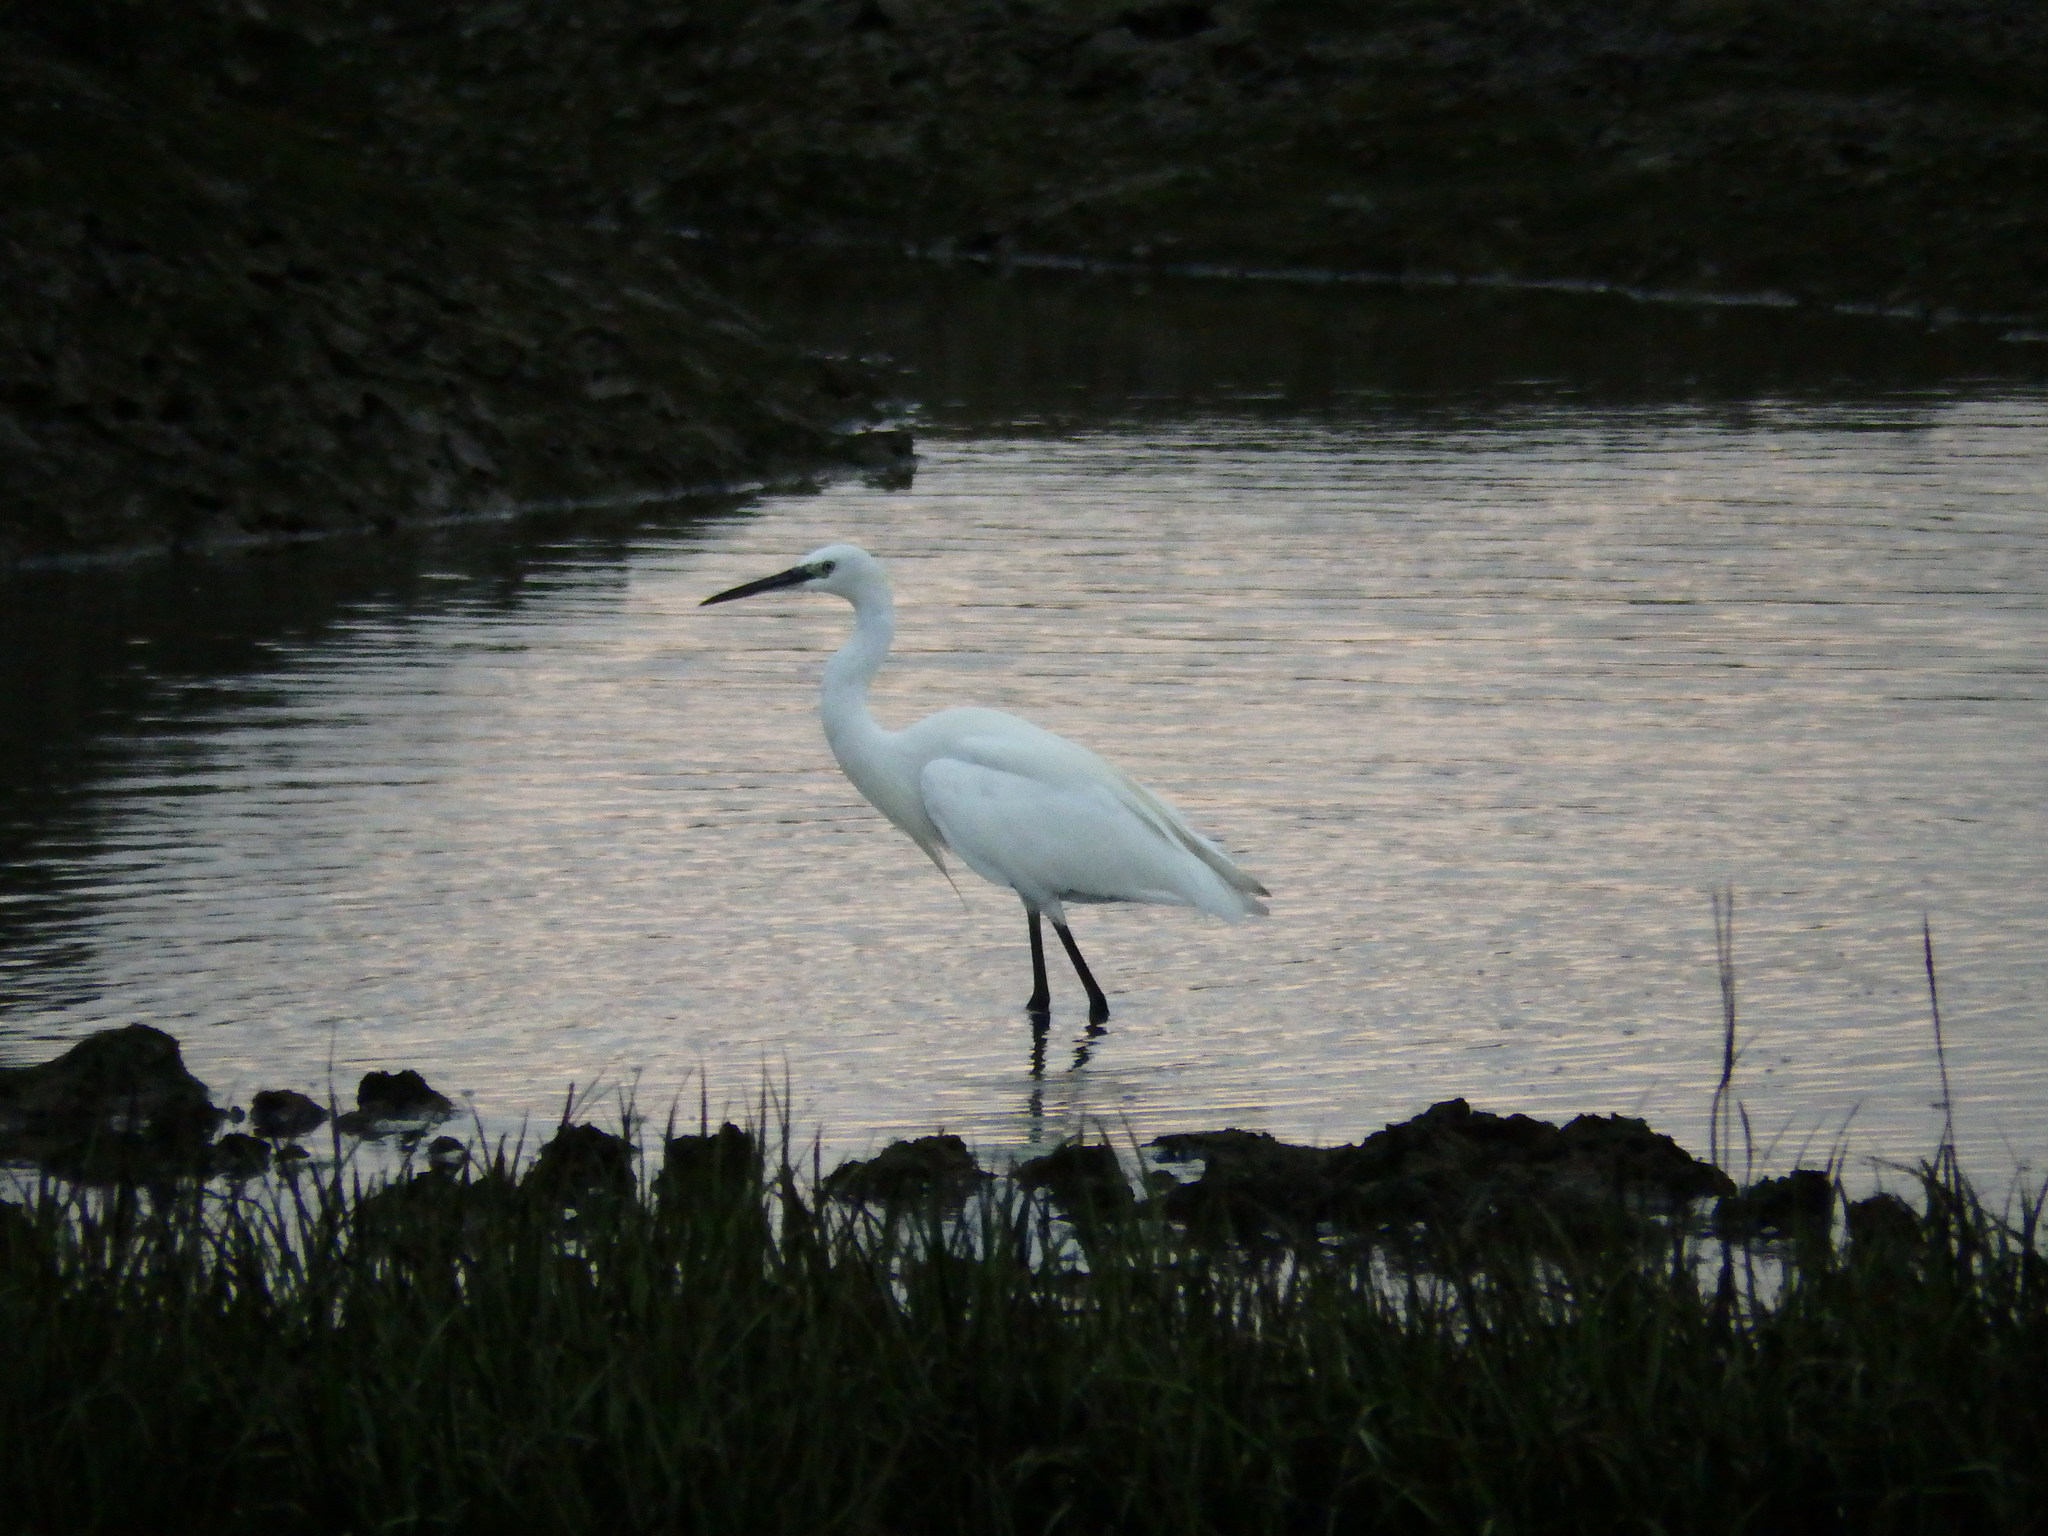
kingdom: Animalia
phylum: Chordata
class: Aves
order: Pelecaniformes
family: Ardeidae
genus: Egretta
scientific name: Egretta garzetta
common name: Little egret
